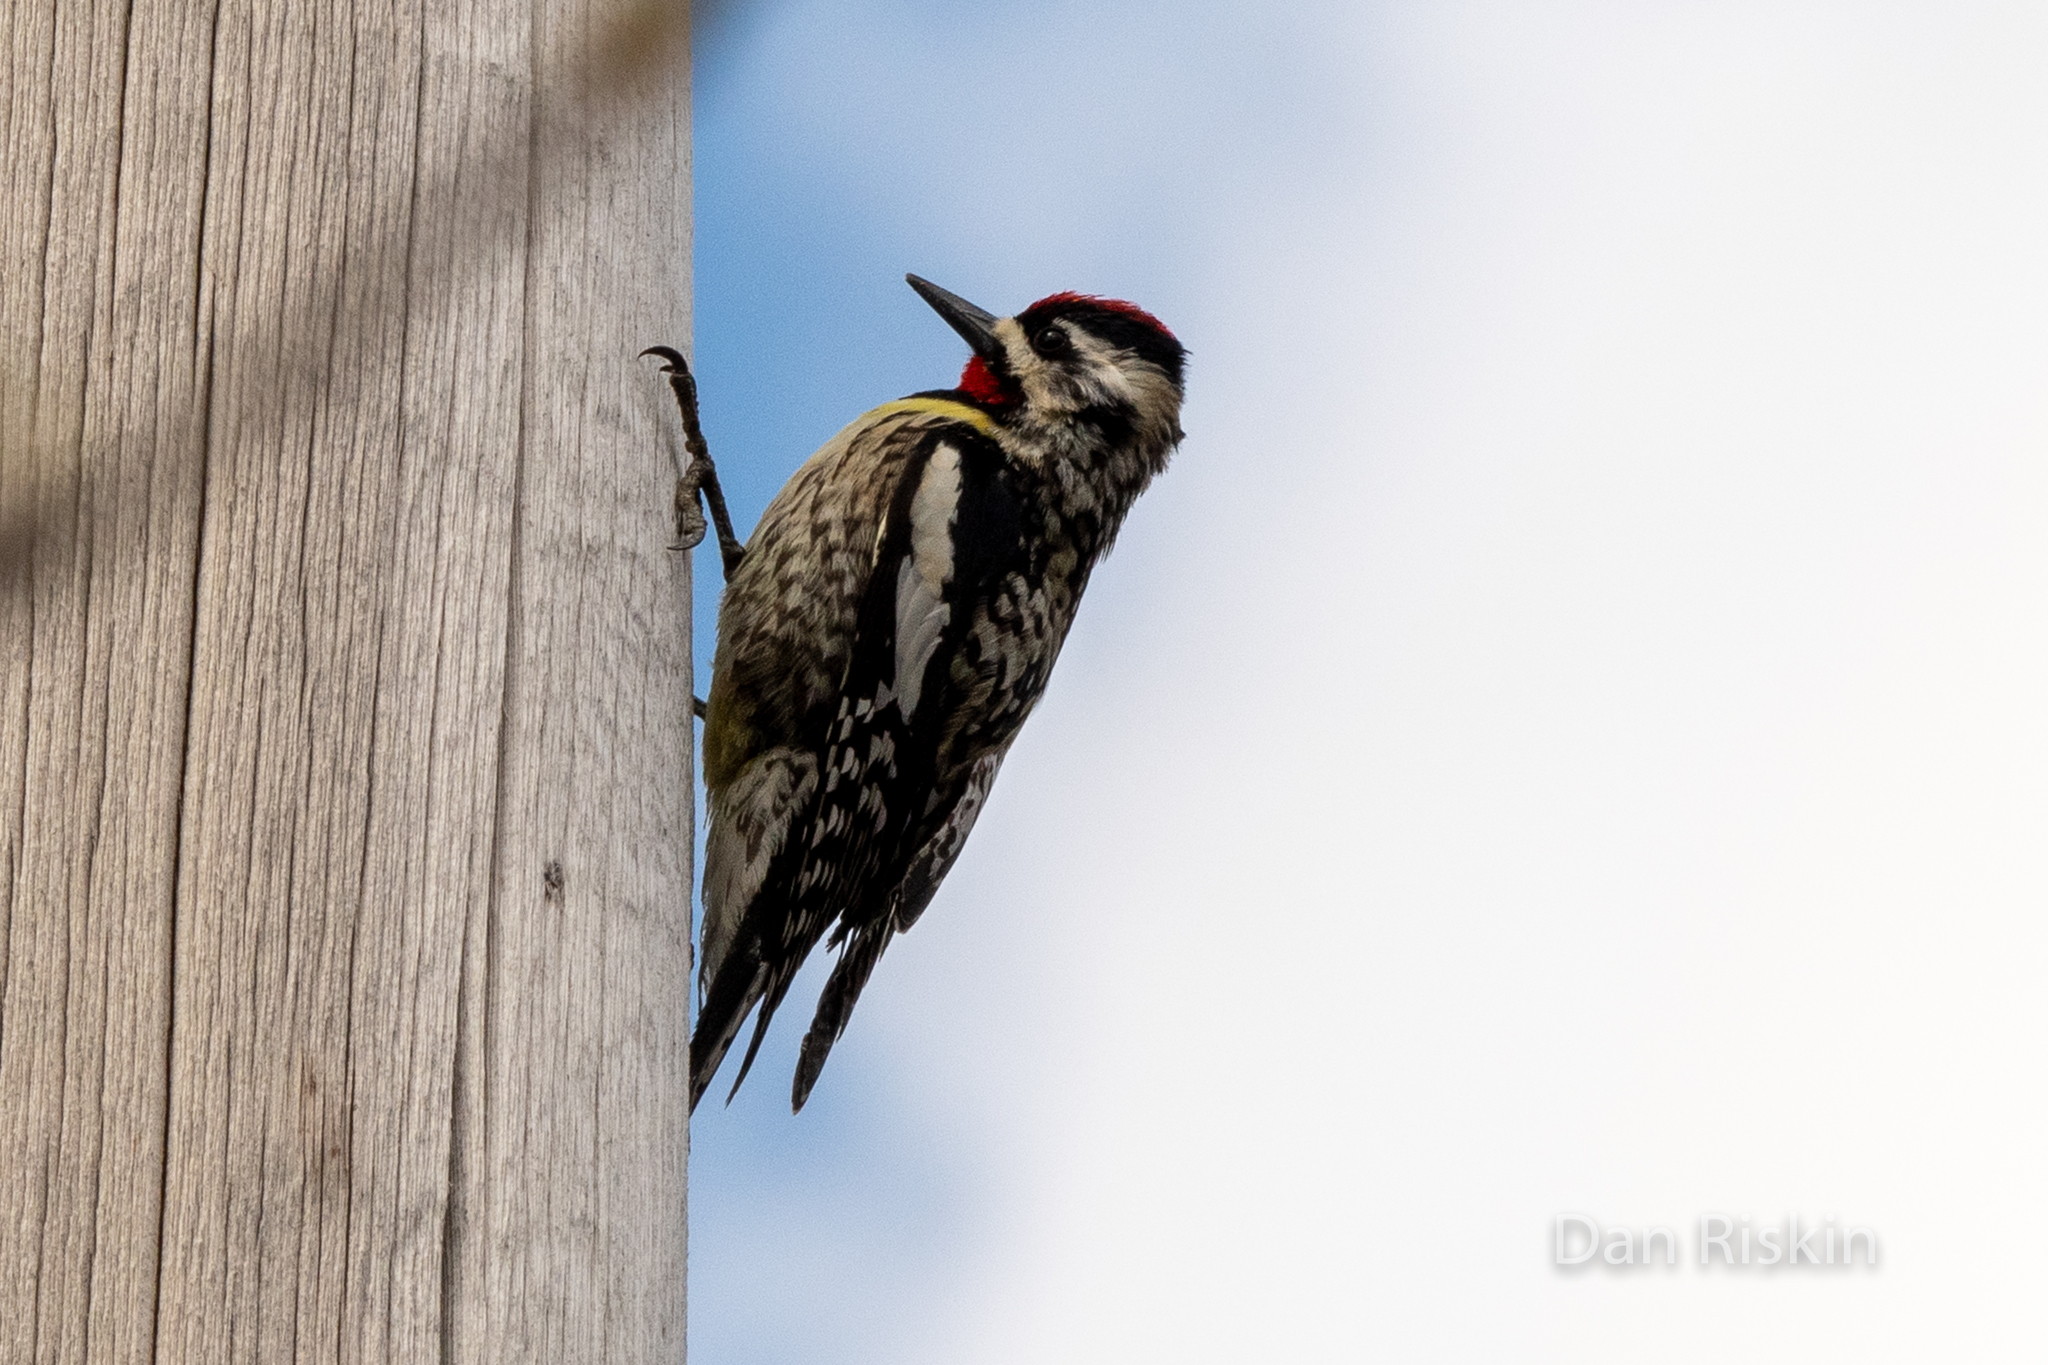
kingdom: Animalia
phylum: Chordata
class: Aves
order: Piciformes
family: Picidae
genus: Sphyrapicus
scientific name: Sphyrapicus varius
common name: Yellow-bellied sapsucker
